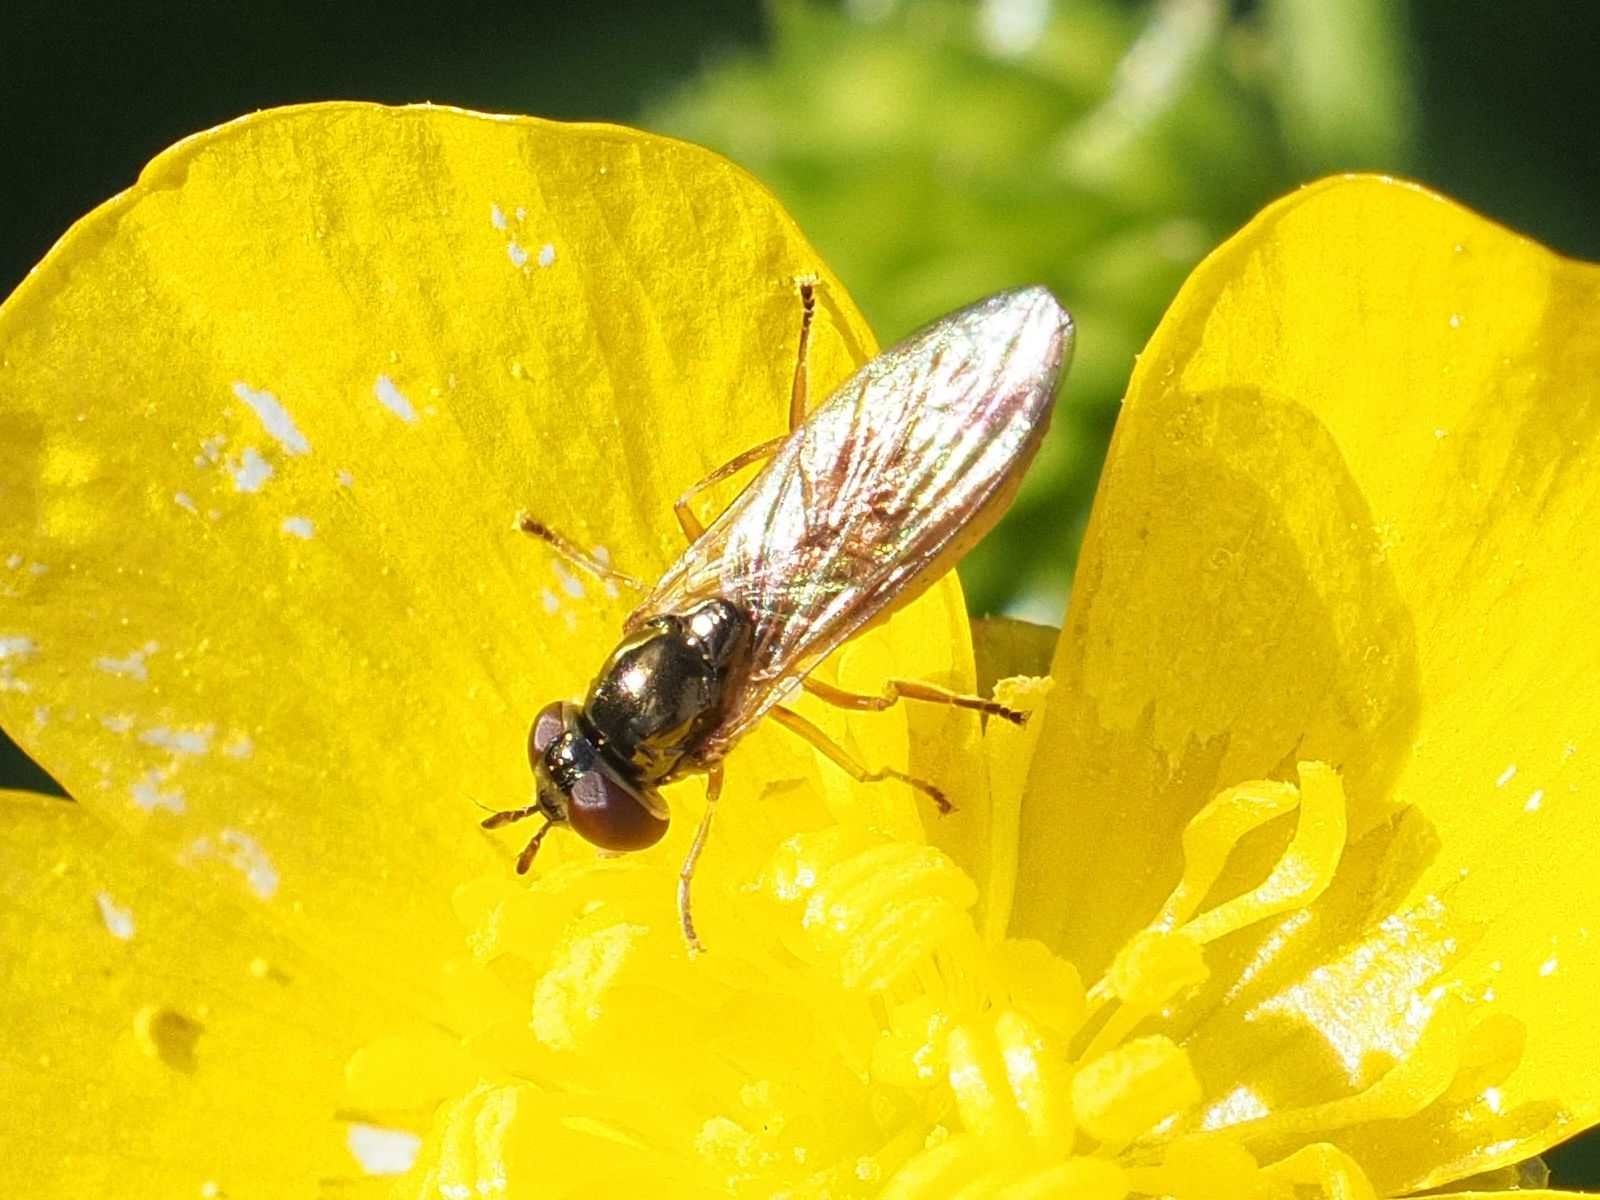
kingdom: Animalia
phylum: Arthropoda
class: Insecta
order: Diptera
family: Syrphidae
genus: Melanostoma
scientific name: Melanostoma mellina
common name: Hover fly
